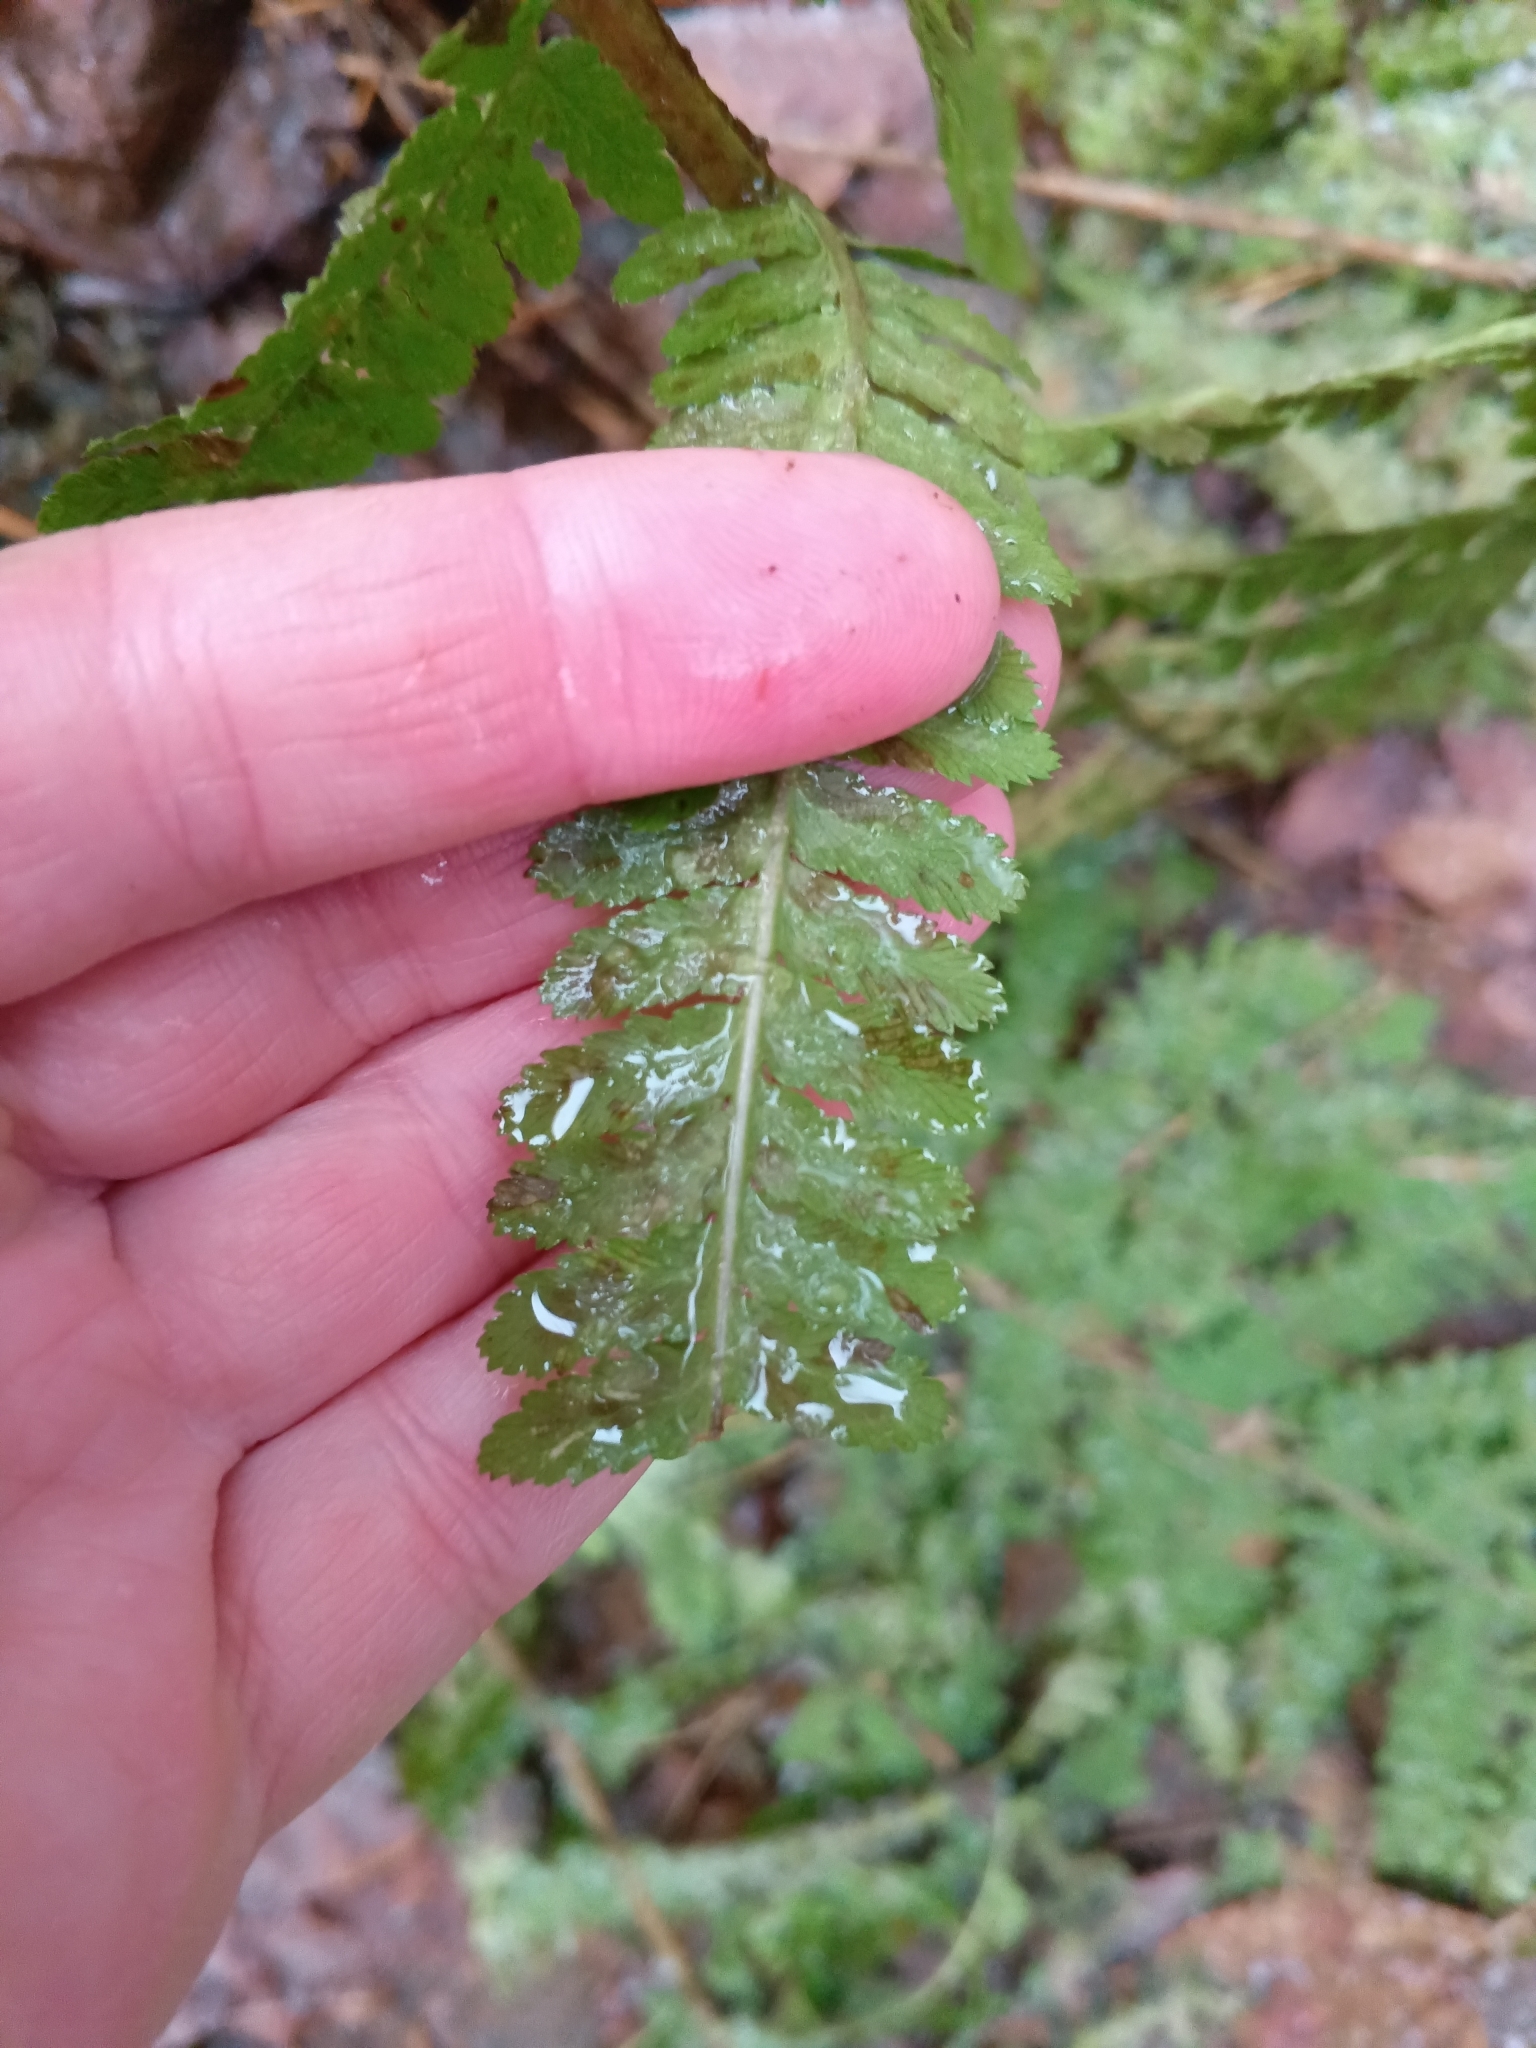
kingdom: Plantae
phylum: Tracheophyta
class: Polypodiopsida
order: Polypodiales
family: Dryopteridaceae
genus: Dryopteris
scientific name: Dryopteris filix-mas
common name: Male fern
